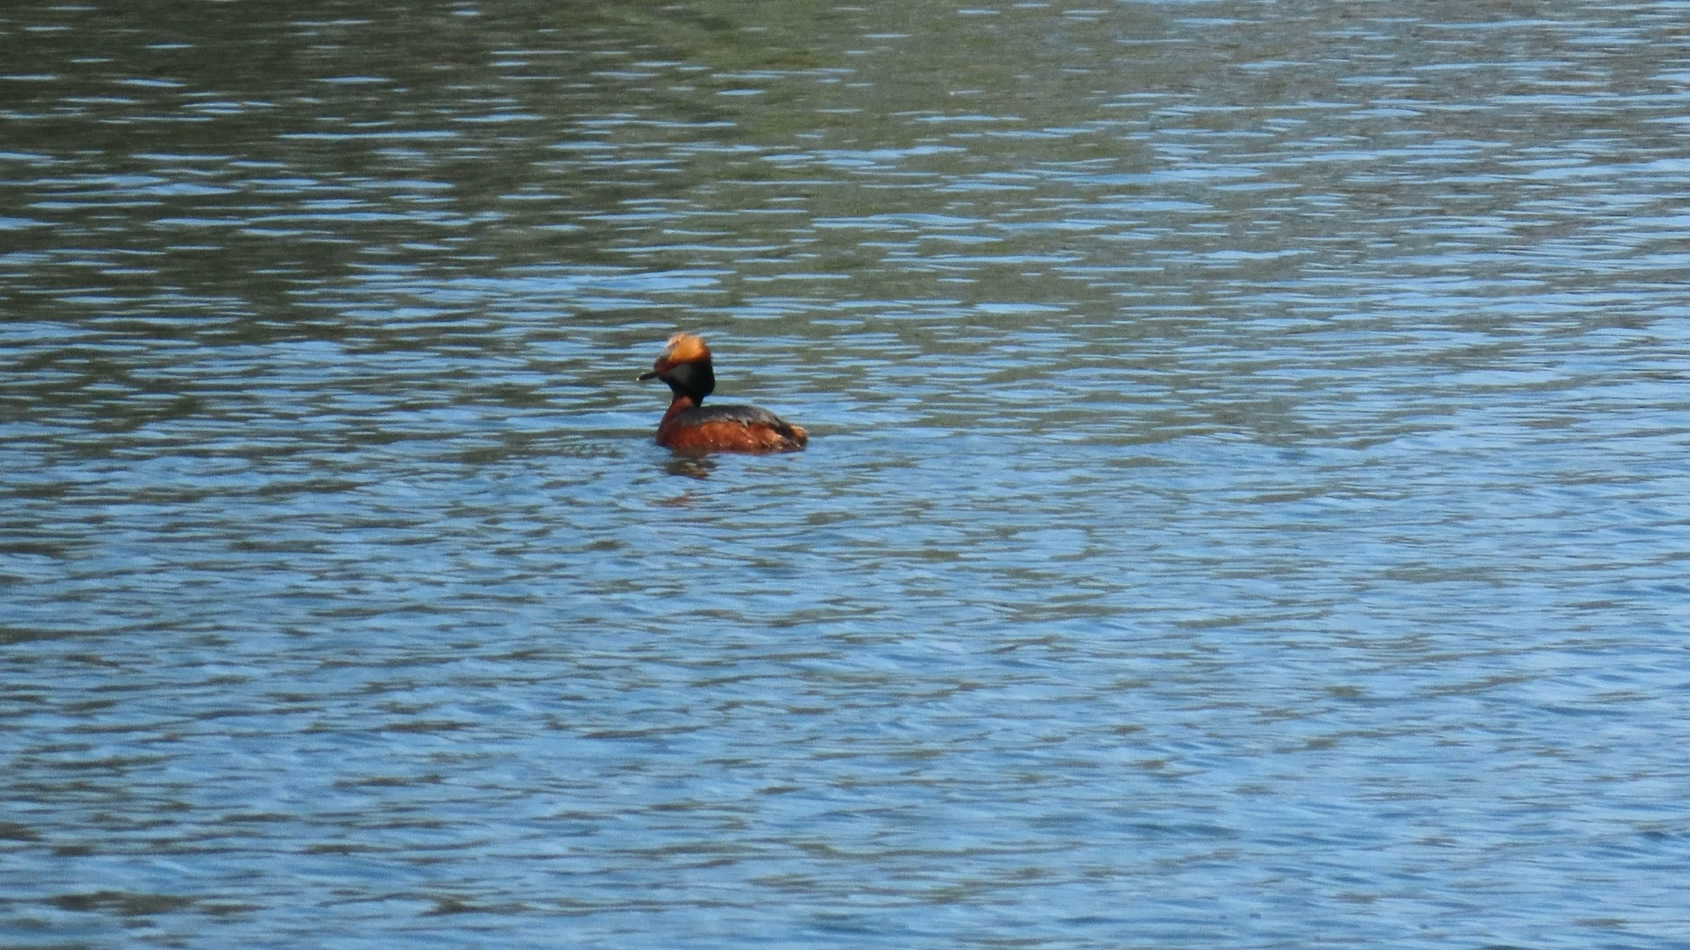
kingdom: Animalia
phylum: Chordata
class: Aves
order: Podicipediformes
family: Podicipedidae
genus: Podiceps
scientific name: Podiceps auritus
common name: Horned grebe
